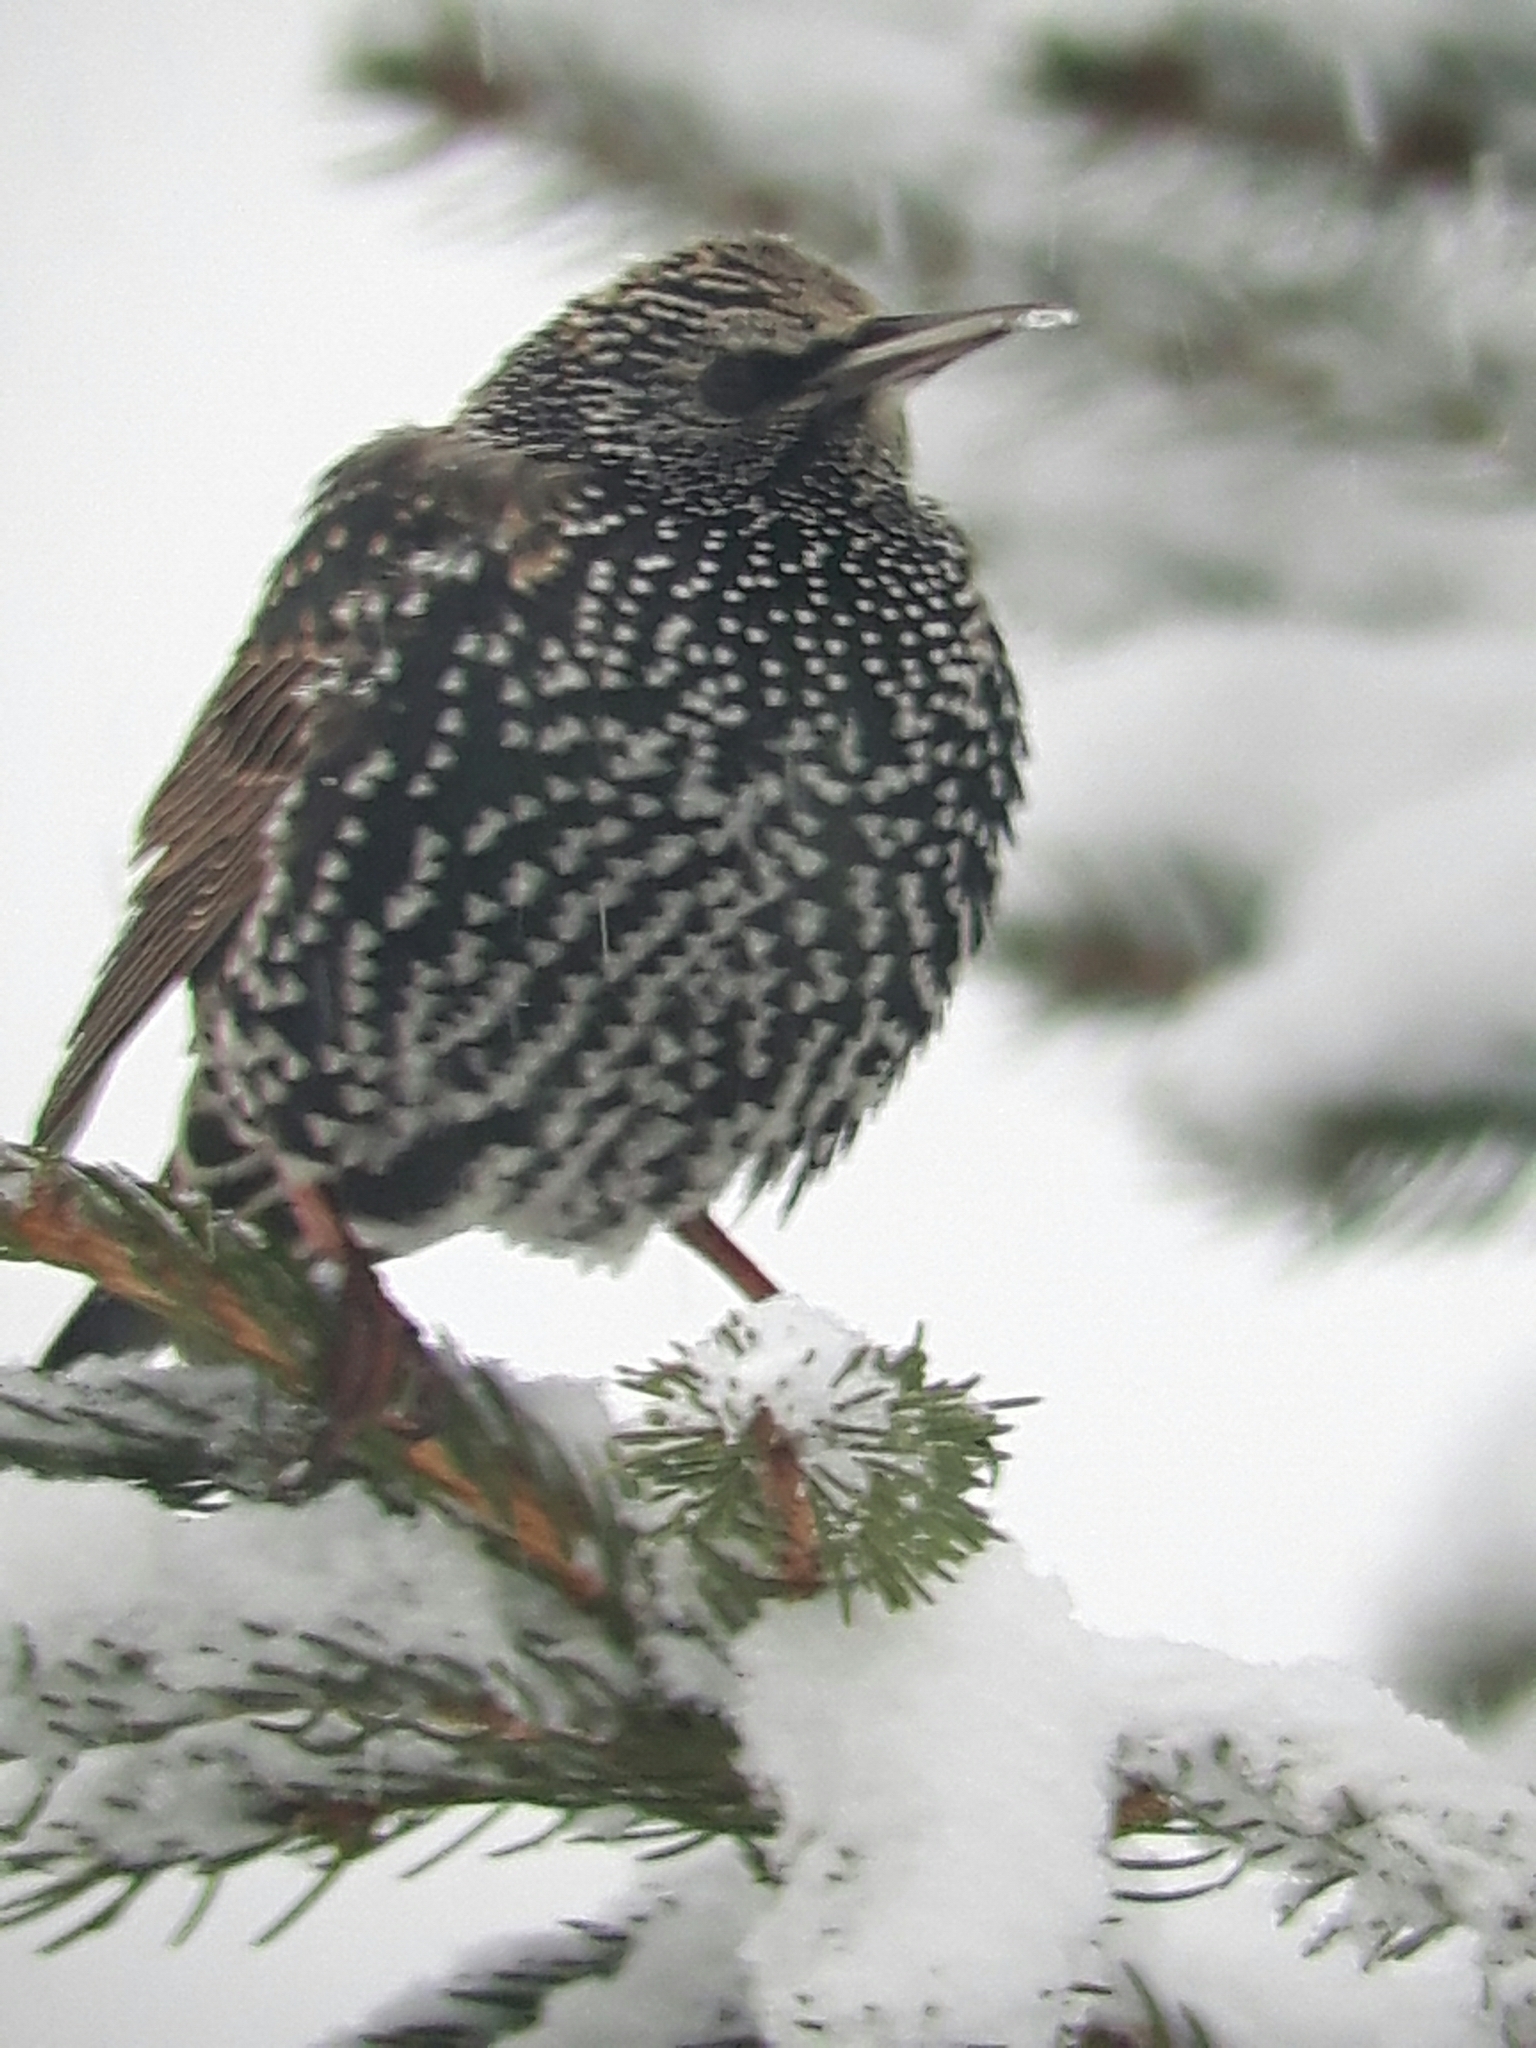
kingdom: Animalia
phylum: Chordata
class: Aves
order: Passeriformes
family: Sturnidae
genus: Sturnus
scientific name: Sturnus vulgaris
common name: Common starling
